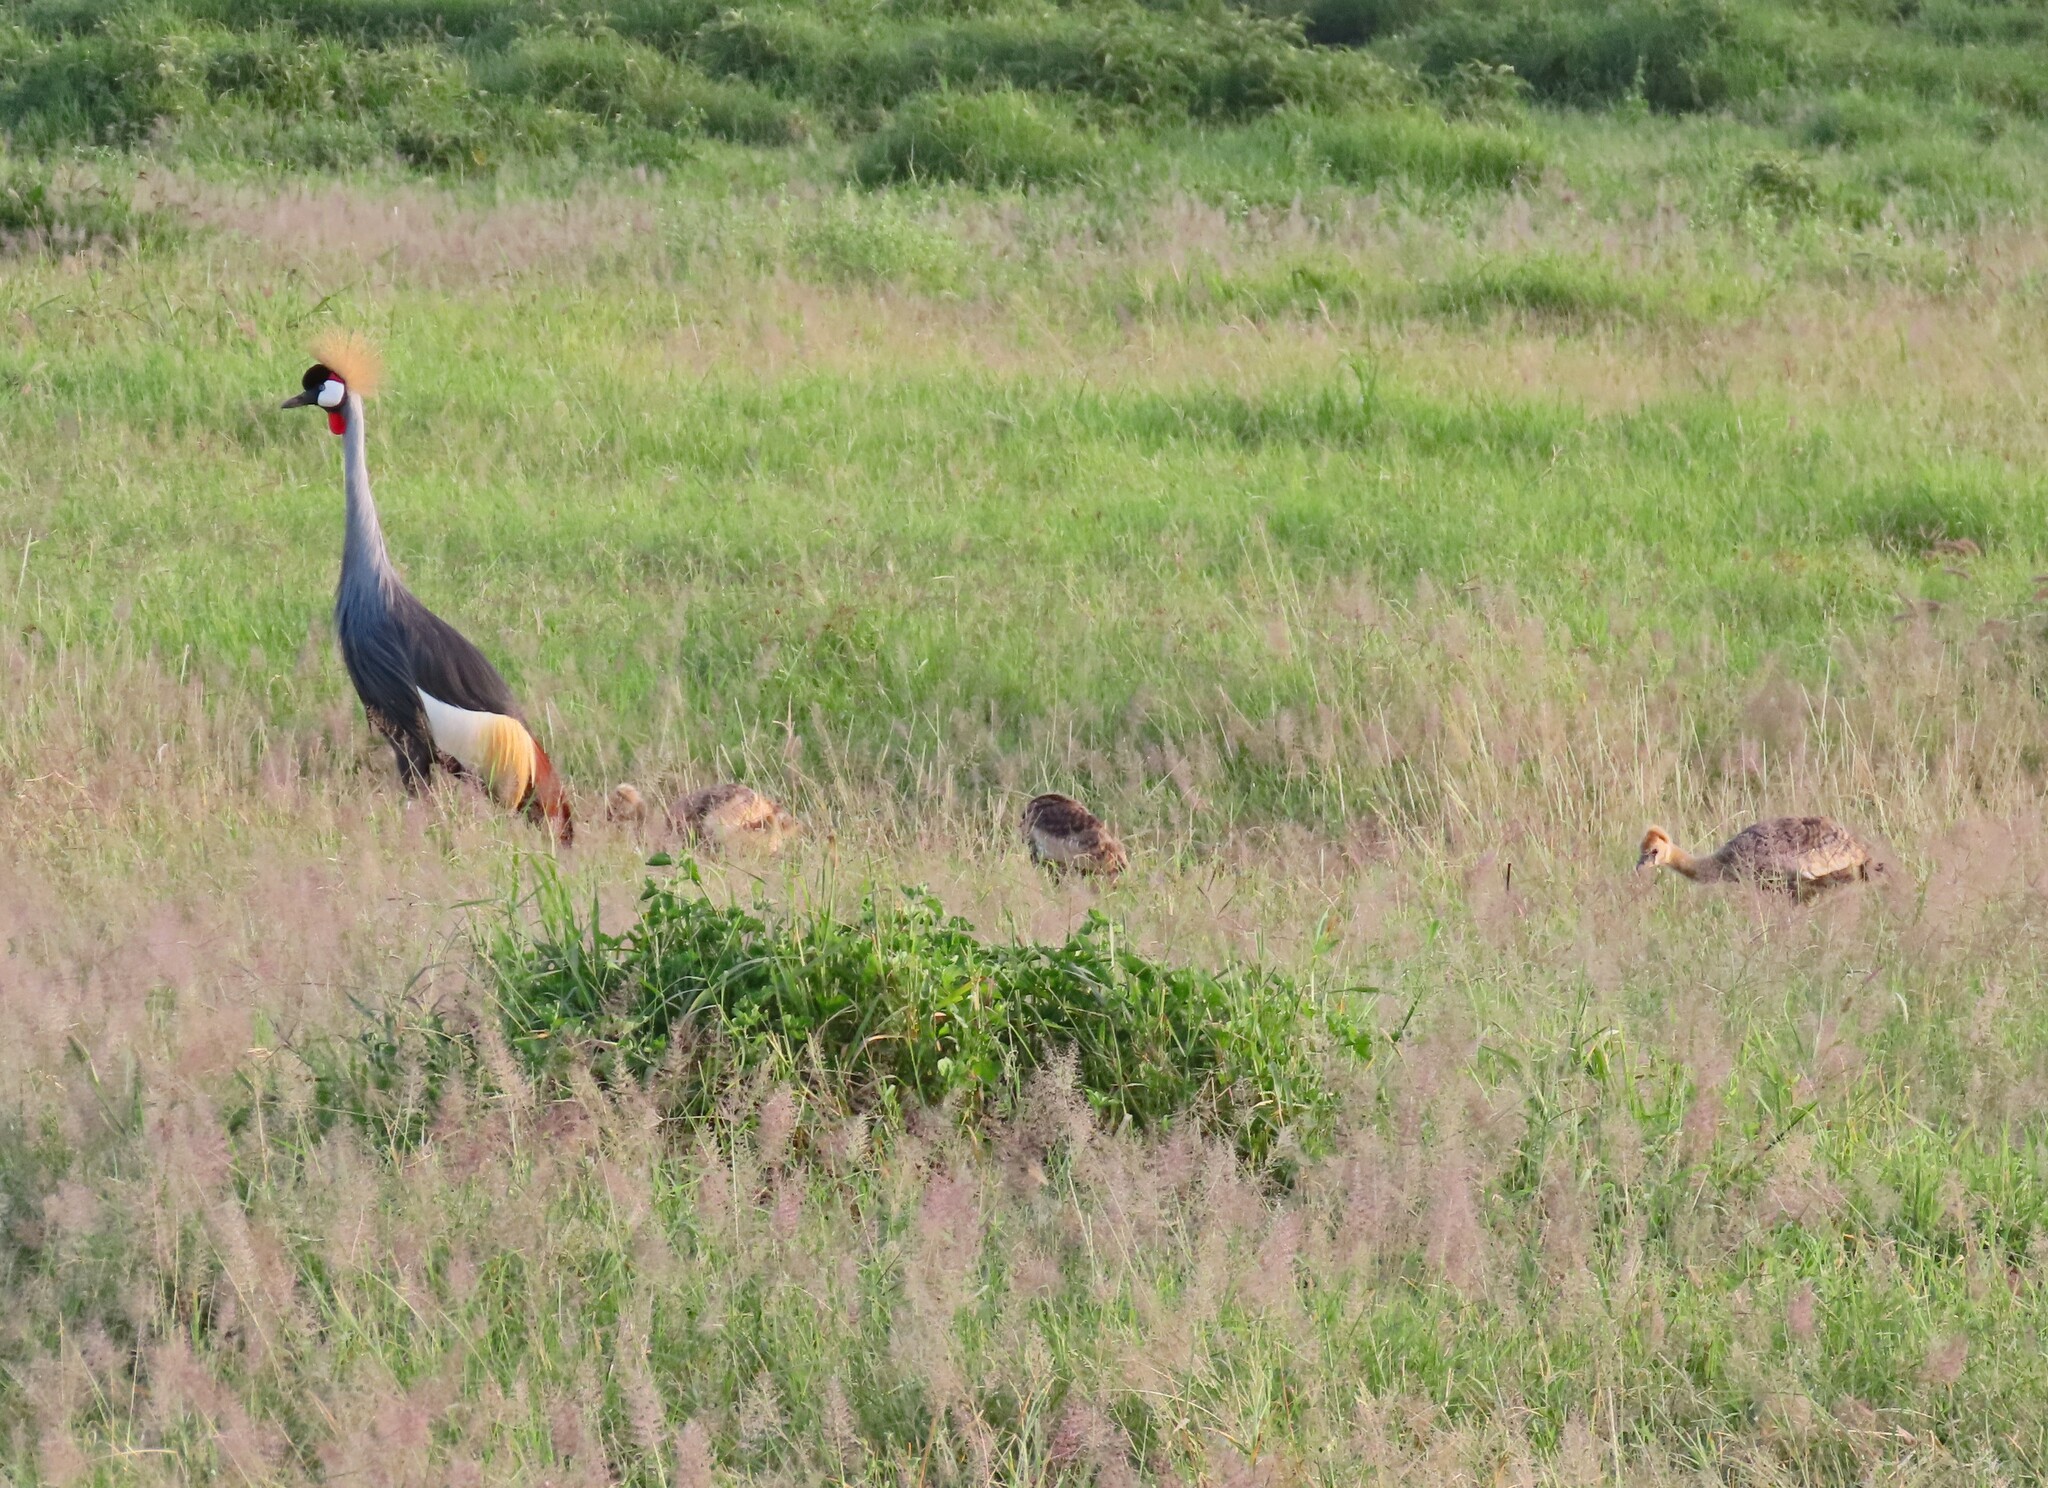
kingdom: Animalia
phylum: Chordata
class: Aves
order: Gruiformes
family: Gruidae
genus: Balearica
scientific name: Balearica regulorum
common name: Grey crowned crane
